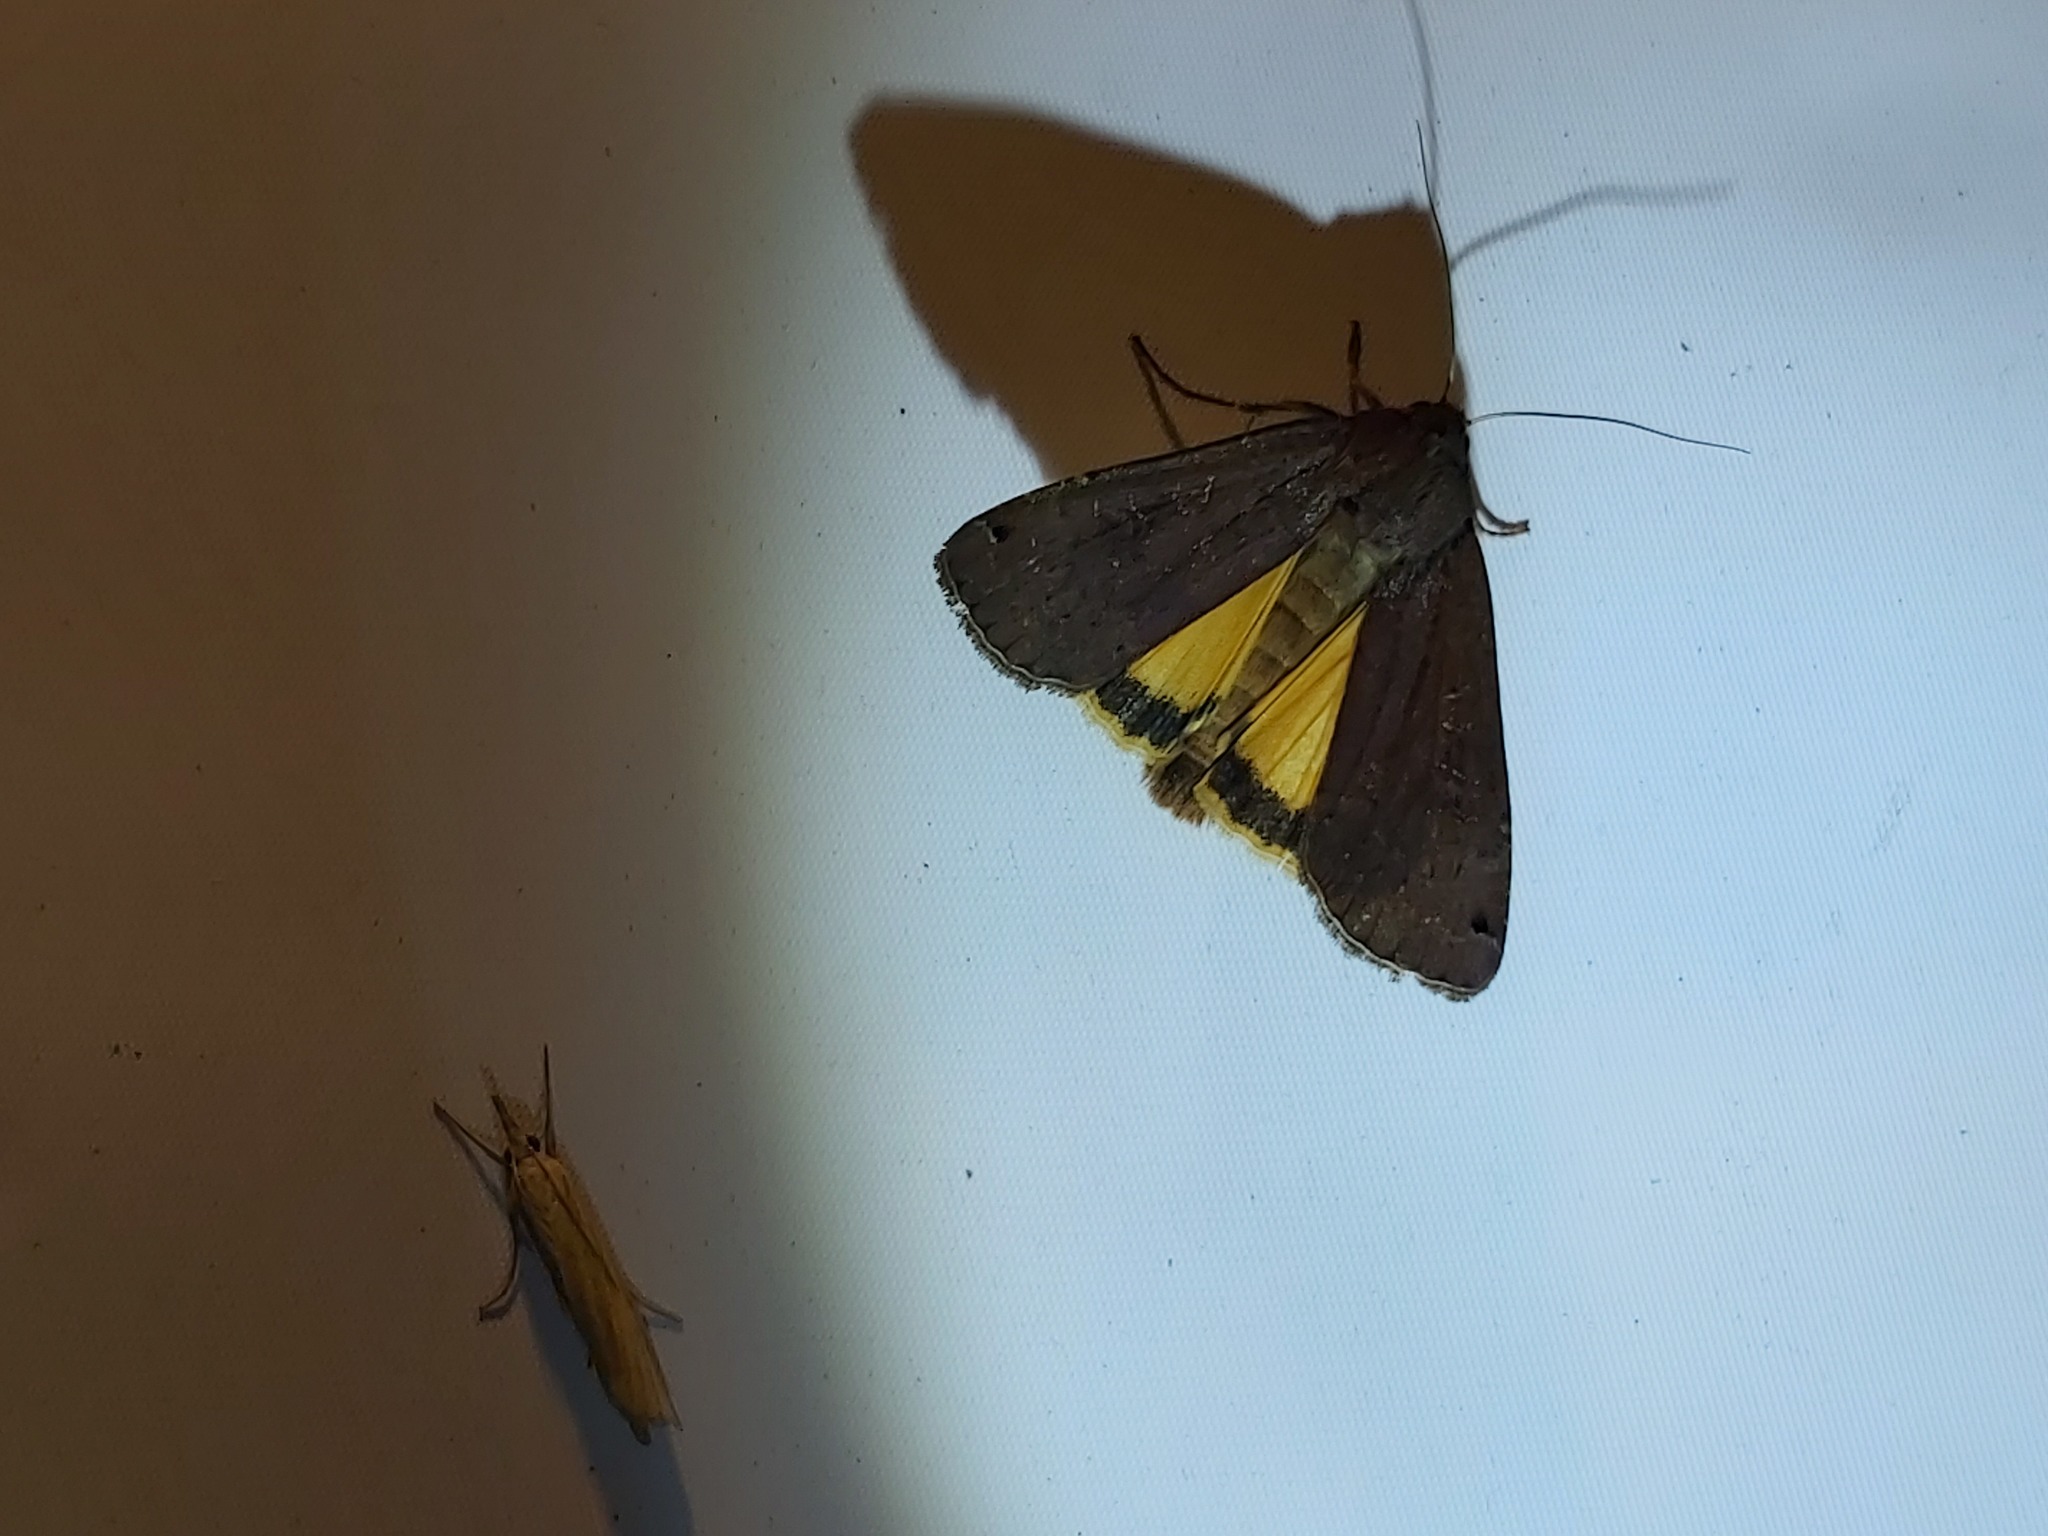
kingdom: Animalia
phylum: Arthropoda
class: Insecta
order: Lepidoptera
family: Noctuidae
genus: Noctua
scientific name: Noctua pronuba
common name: Large yellow underwing
